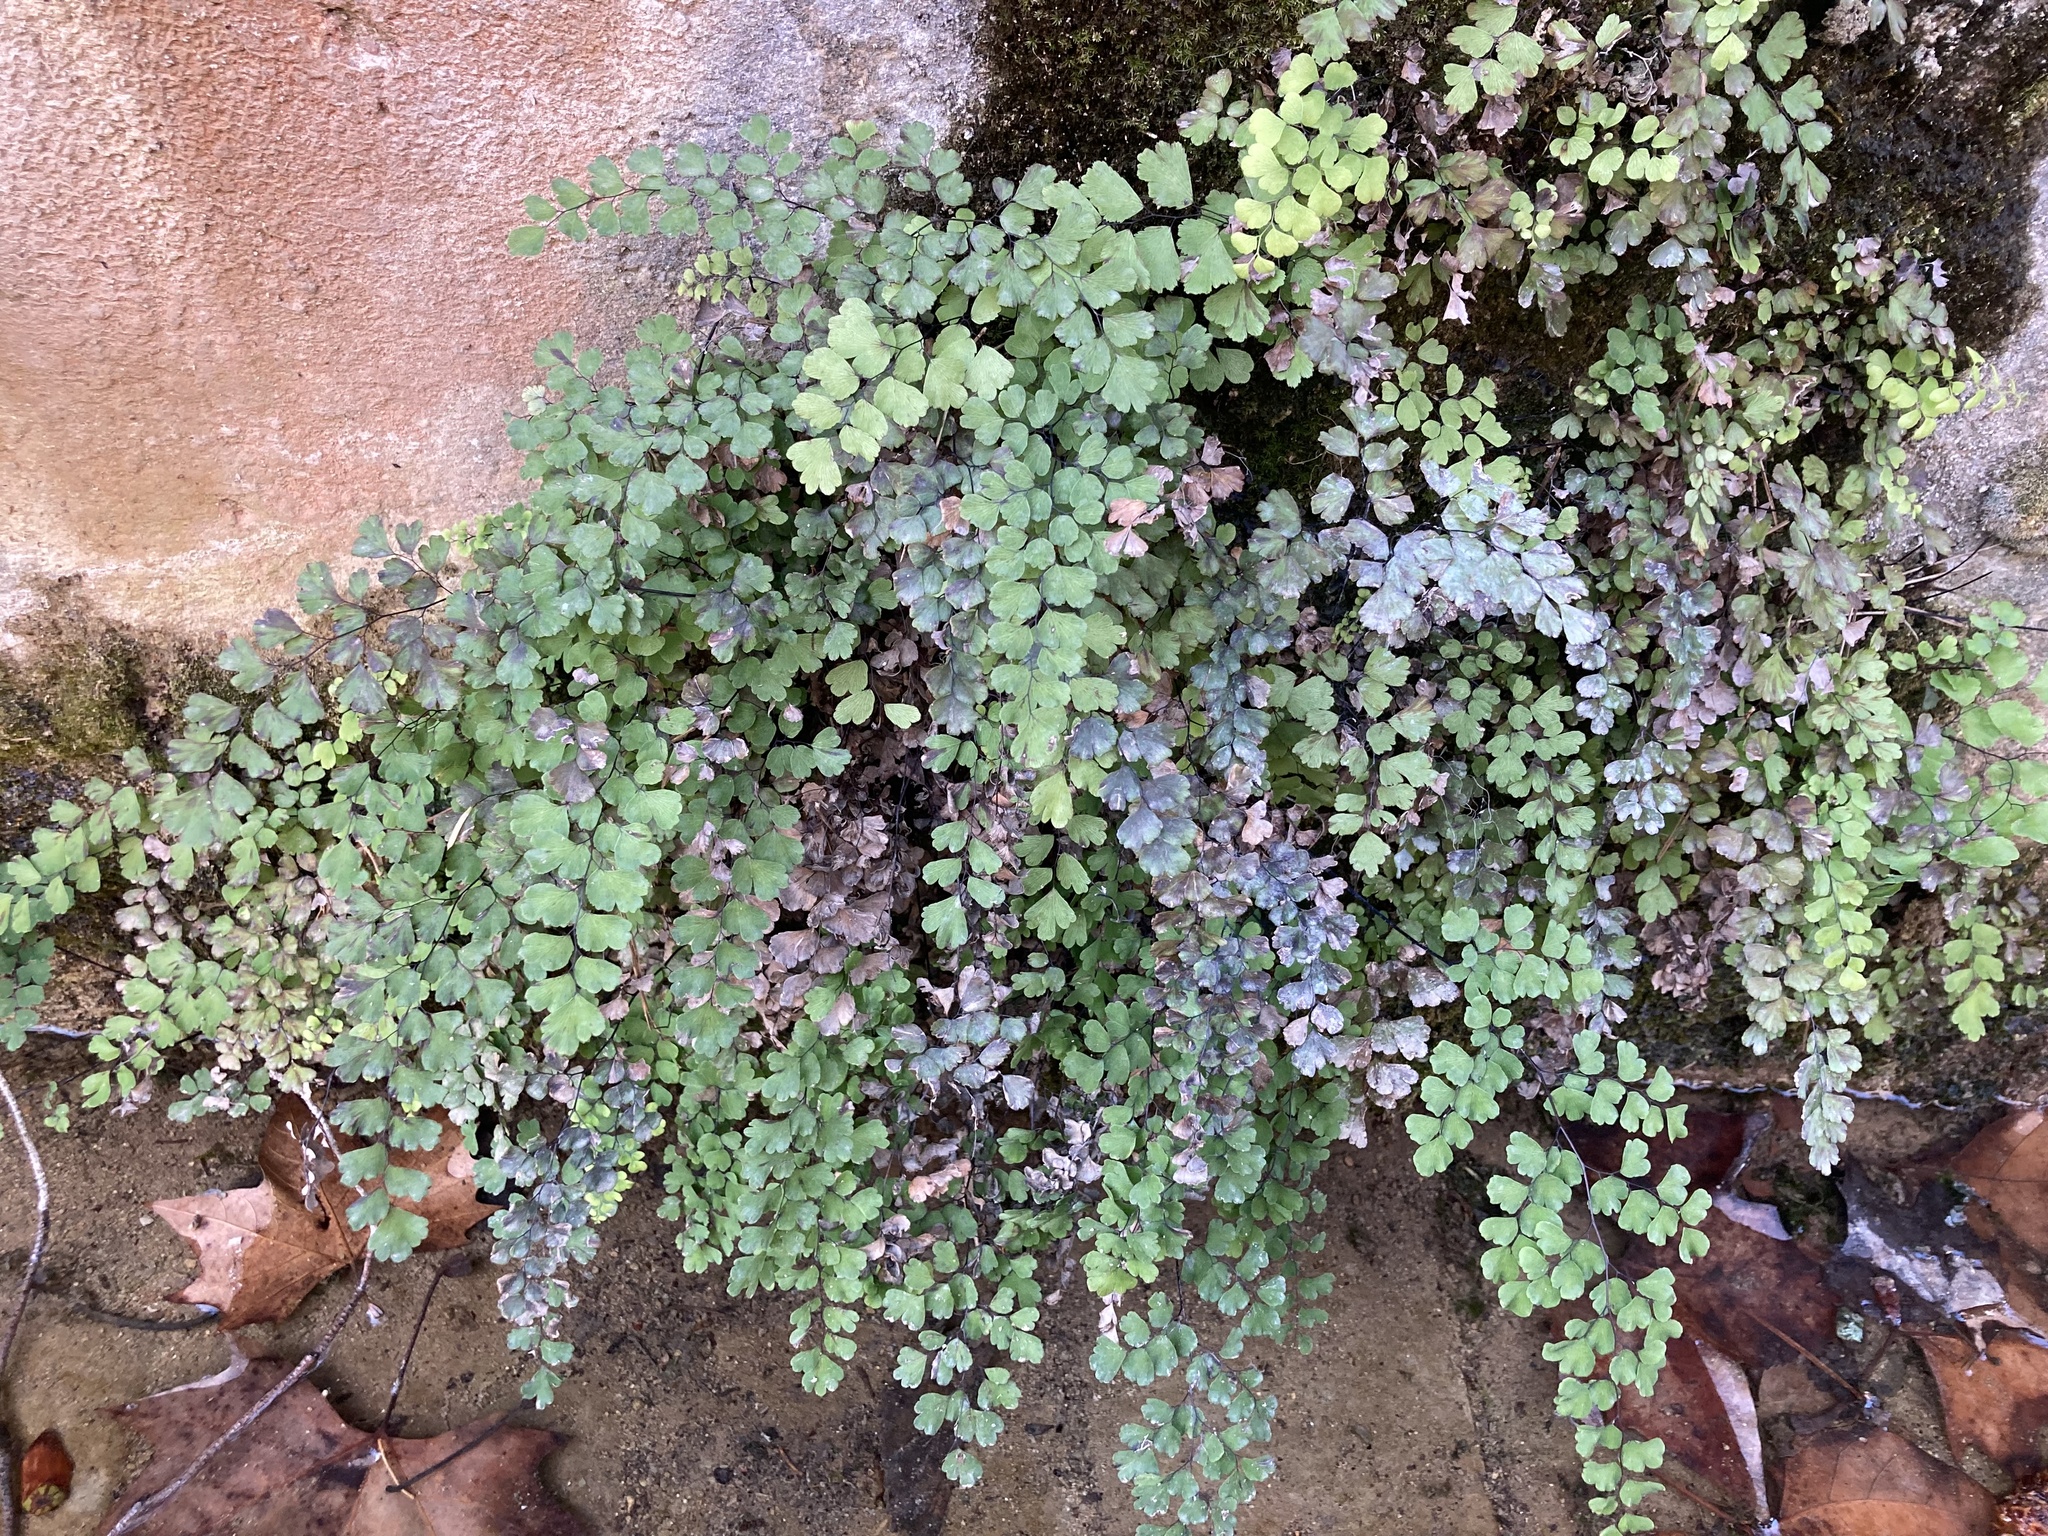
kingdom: Plantae
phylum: Tracheophyta
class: Polypodiopsida
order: Polypodiales
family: Pteridaceae
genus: Adiantum
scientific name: Adiantum capillus-veneris
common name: Maidenhair fern
